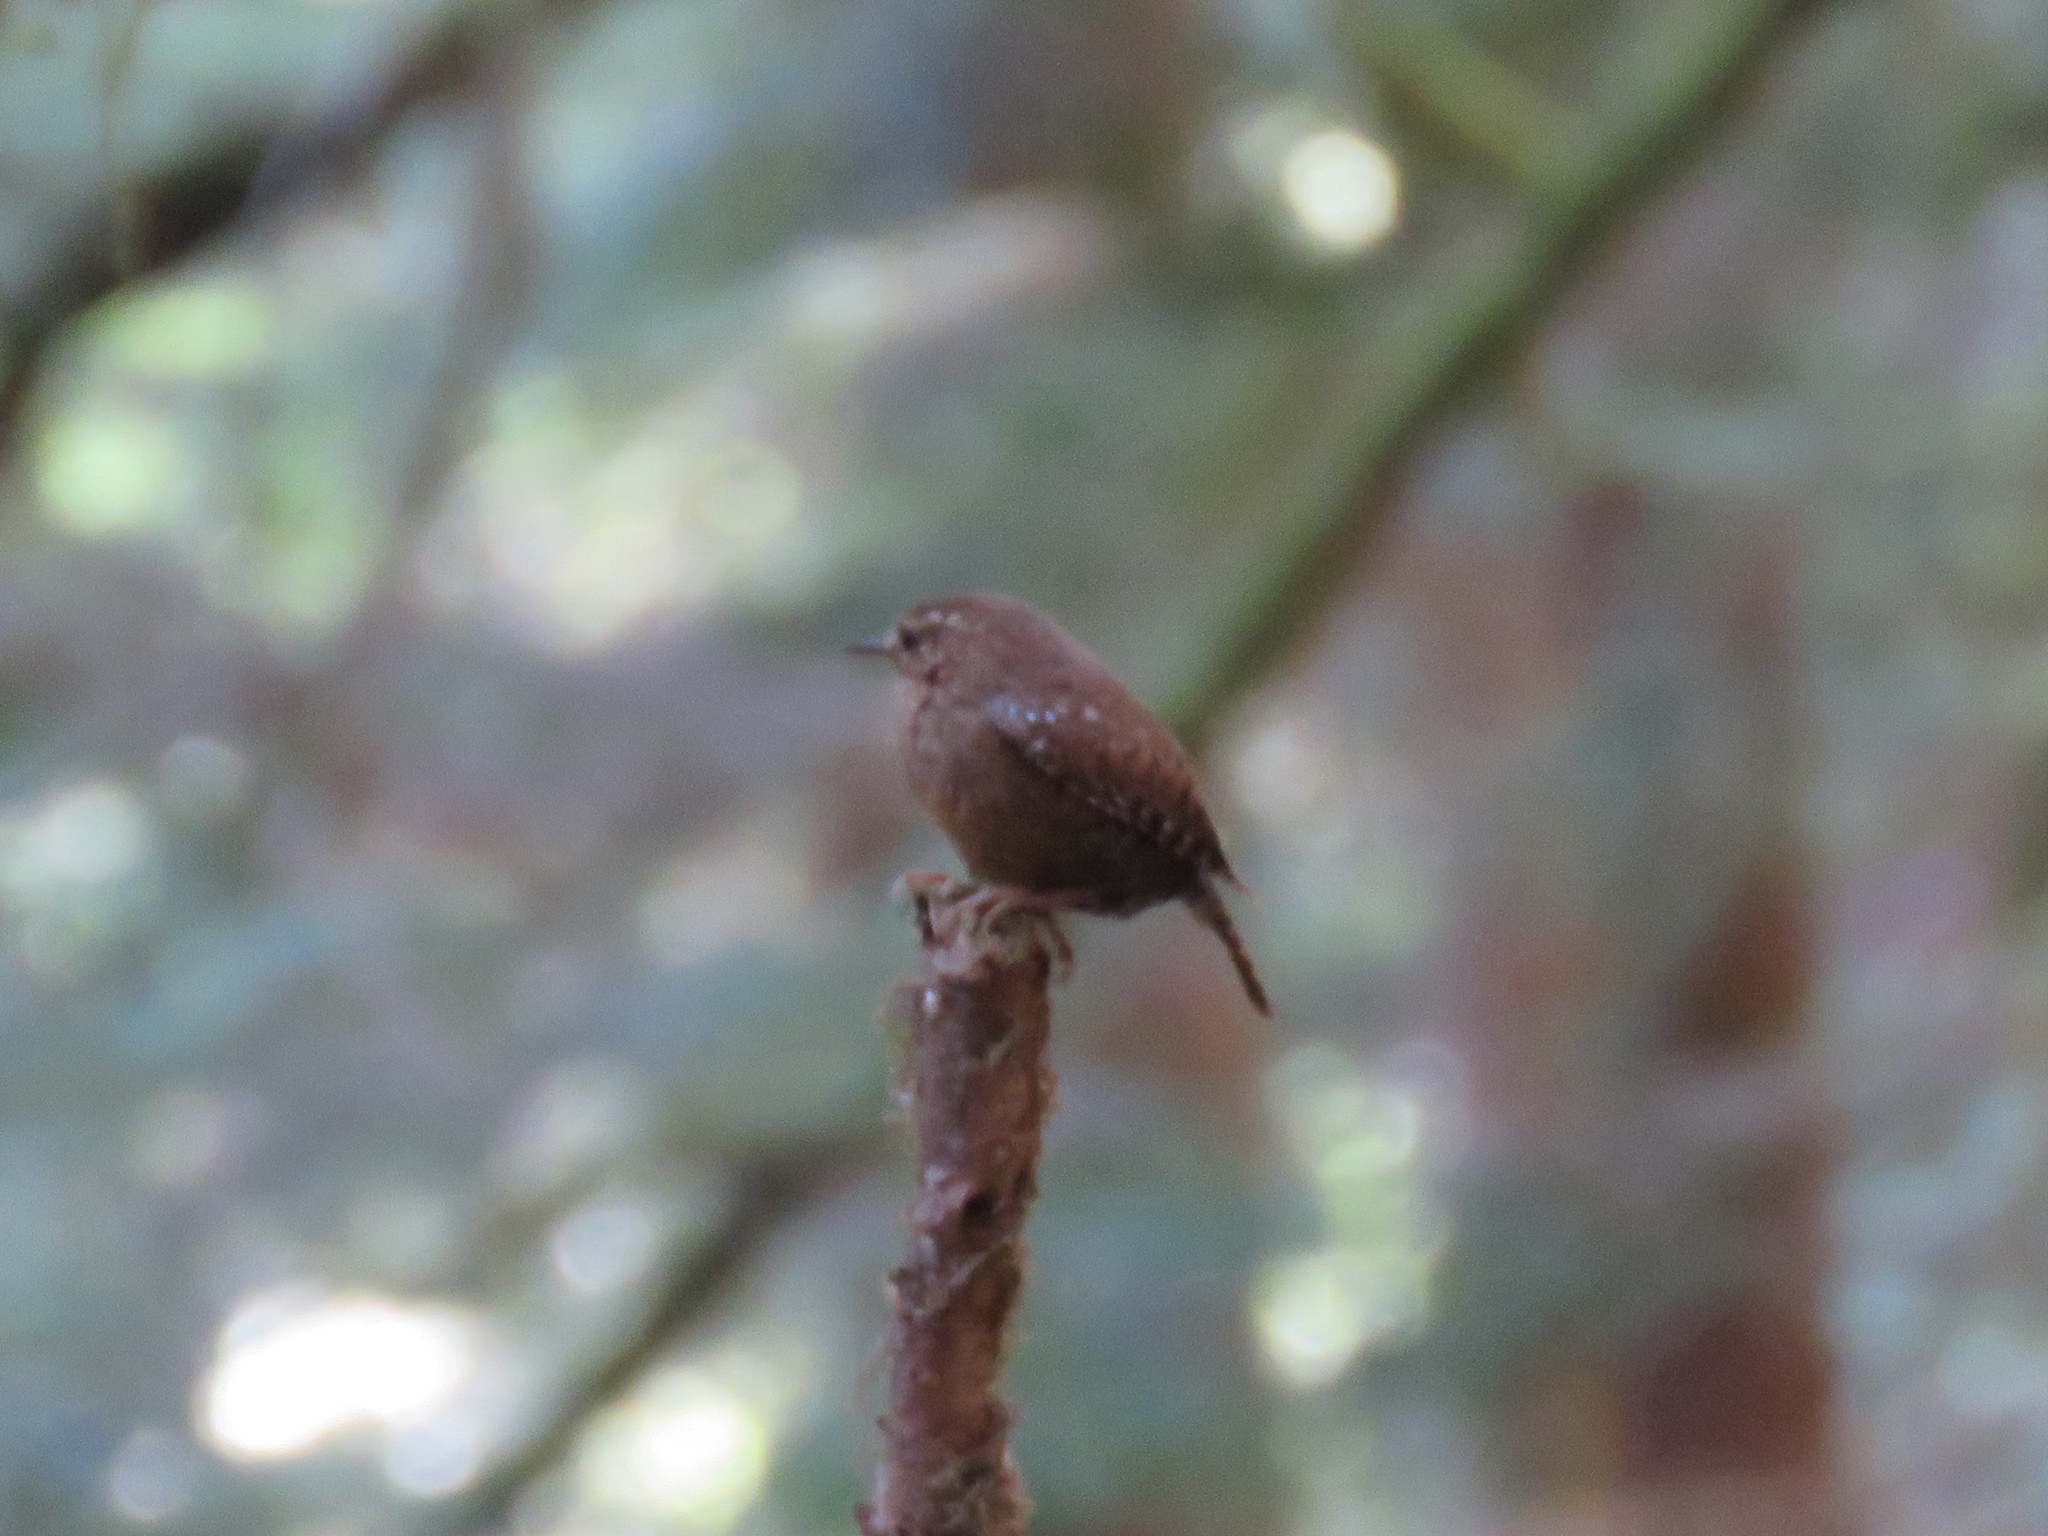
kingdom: Animalia
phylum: Chordata
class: Aves
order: Passeriformes
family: Troglodytidae
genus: Troglodytes
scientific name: Troglodytes pacificus
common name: Pacific wren
